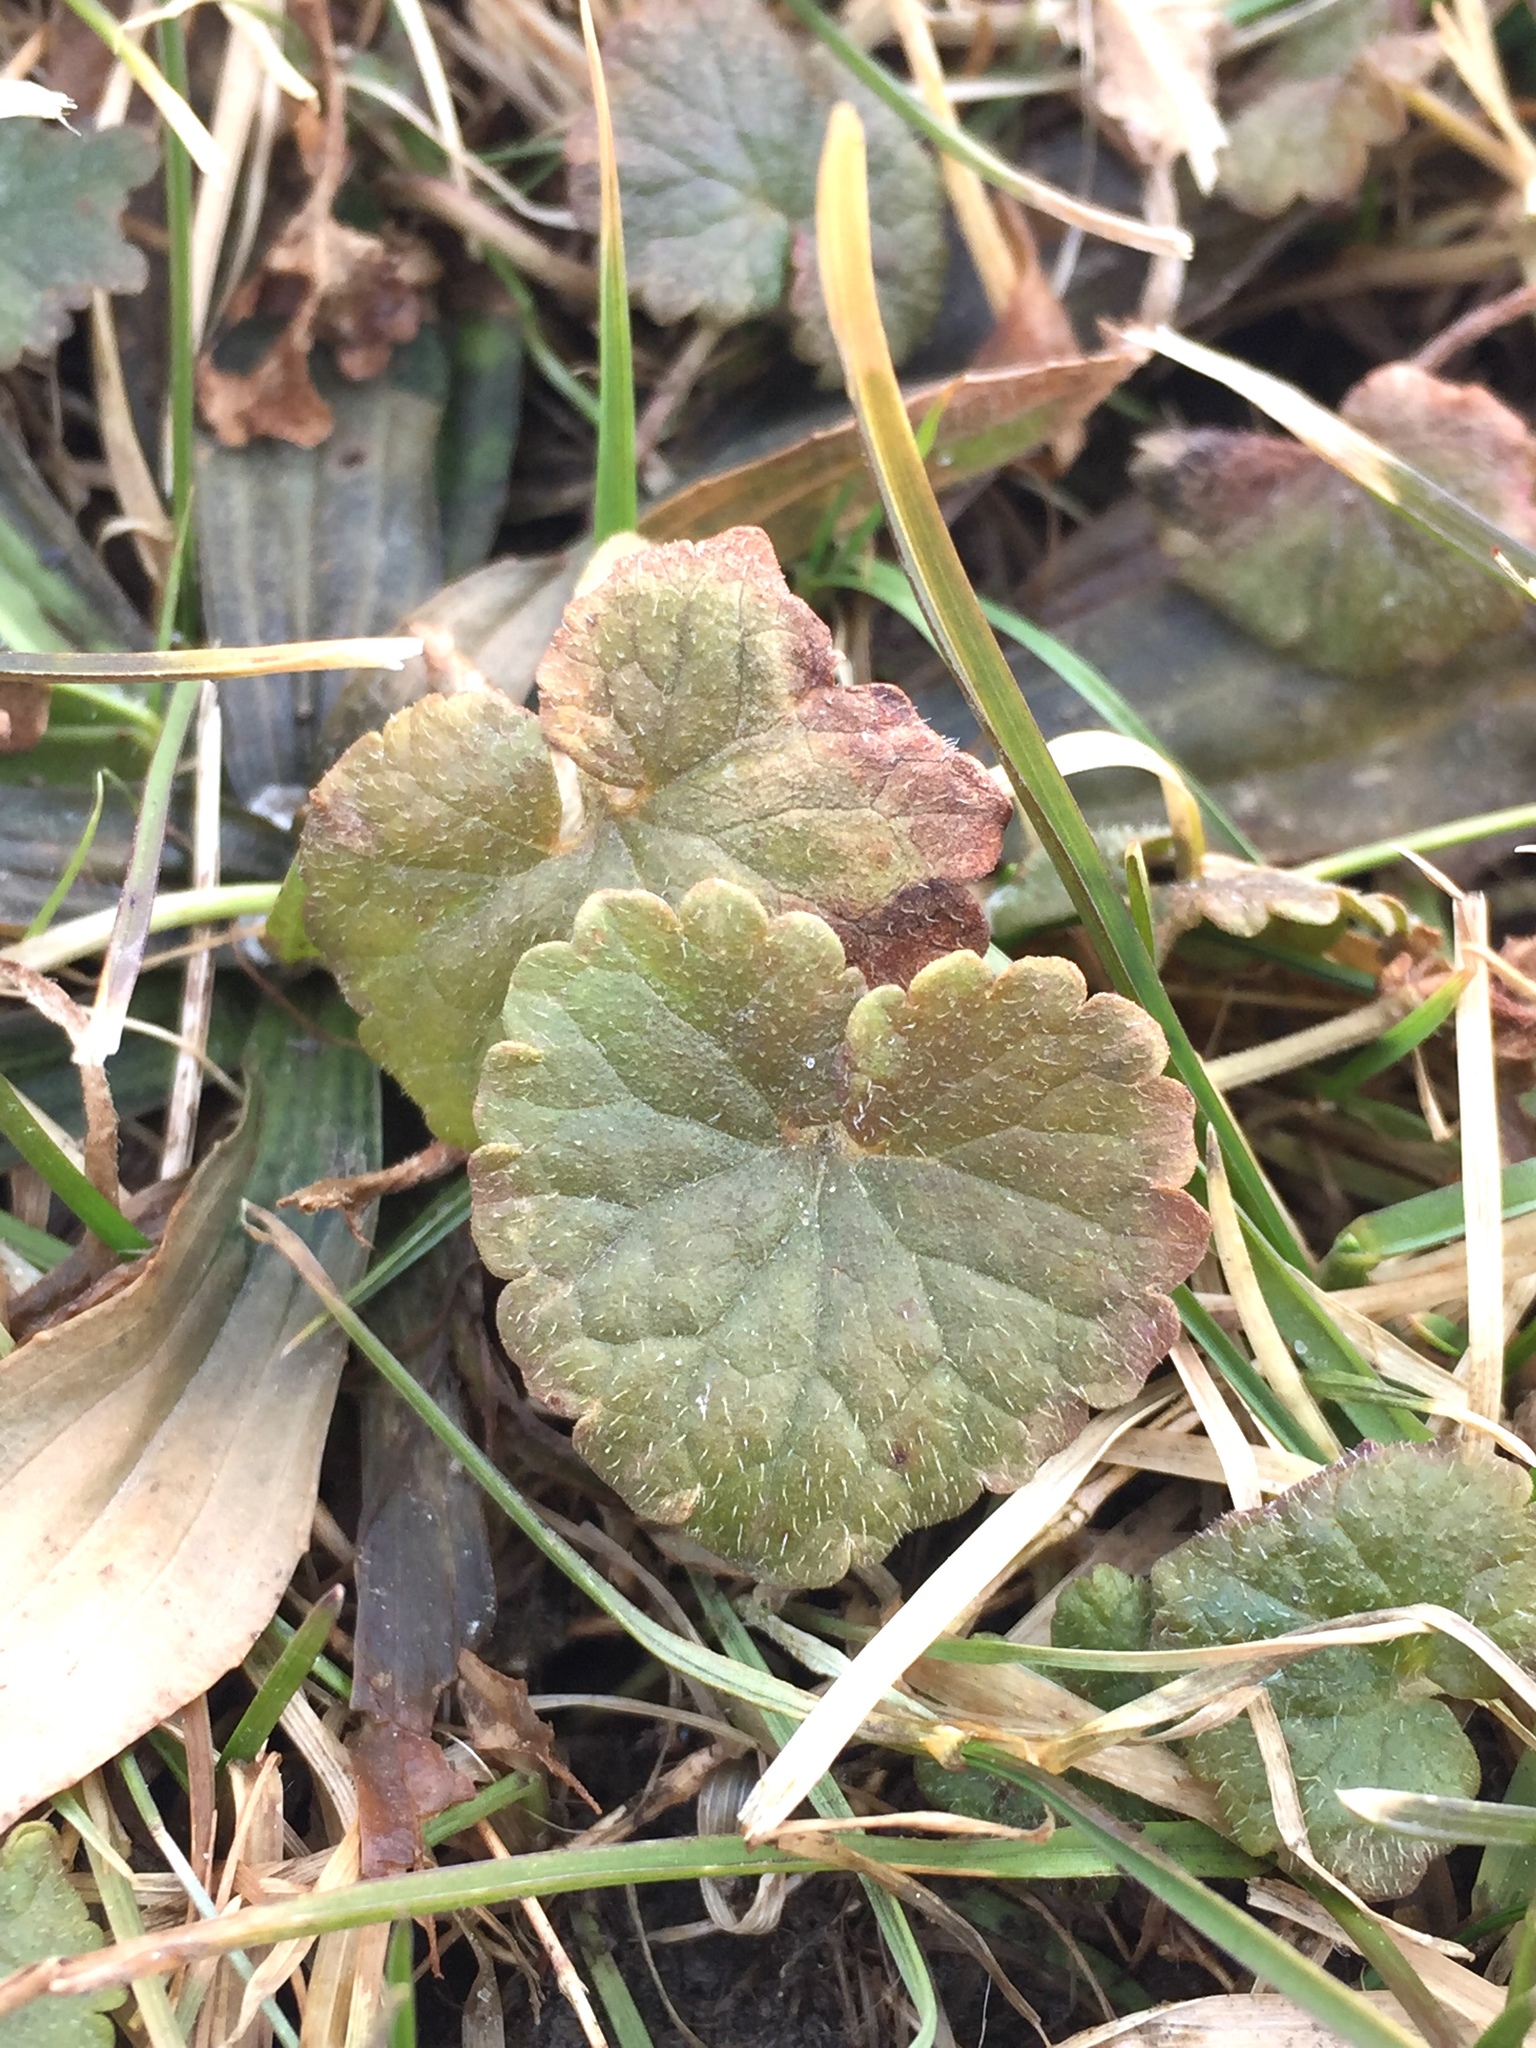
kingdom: Plantae
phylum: Tracheophyta
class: Magnoliopsida
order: Lamiales
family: Lamiaceae
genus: Glechoma
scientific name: Glechoma hederacea
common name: Ground ivy
